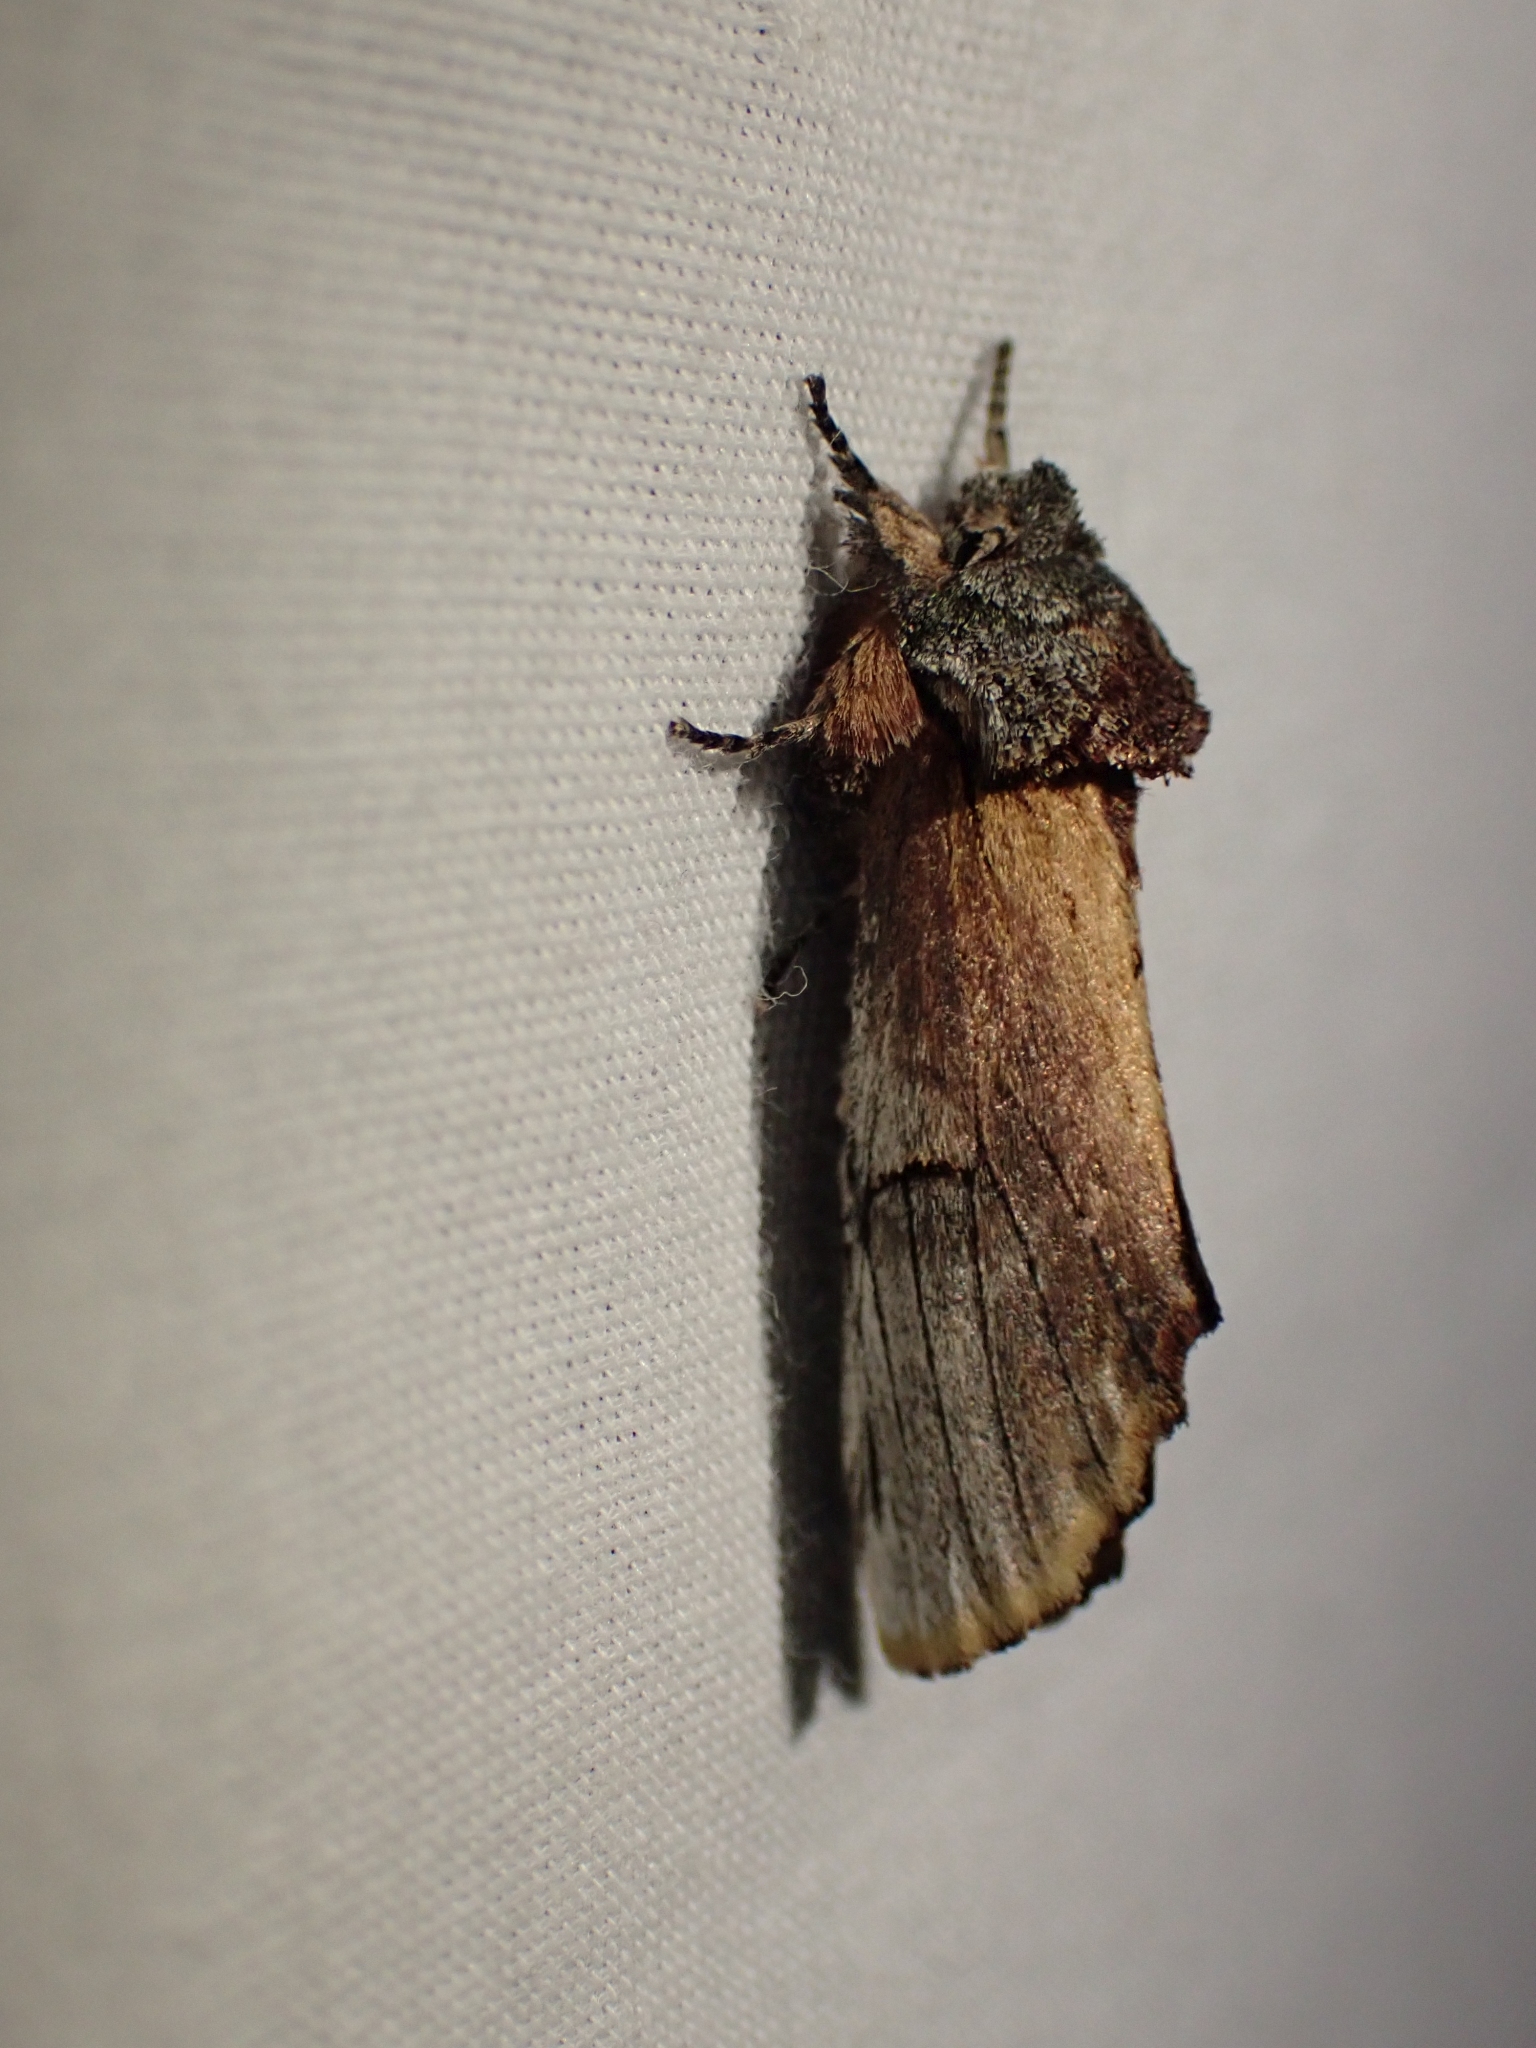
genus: Ianassa
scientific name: Ianassa
